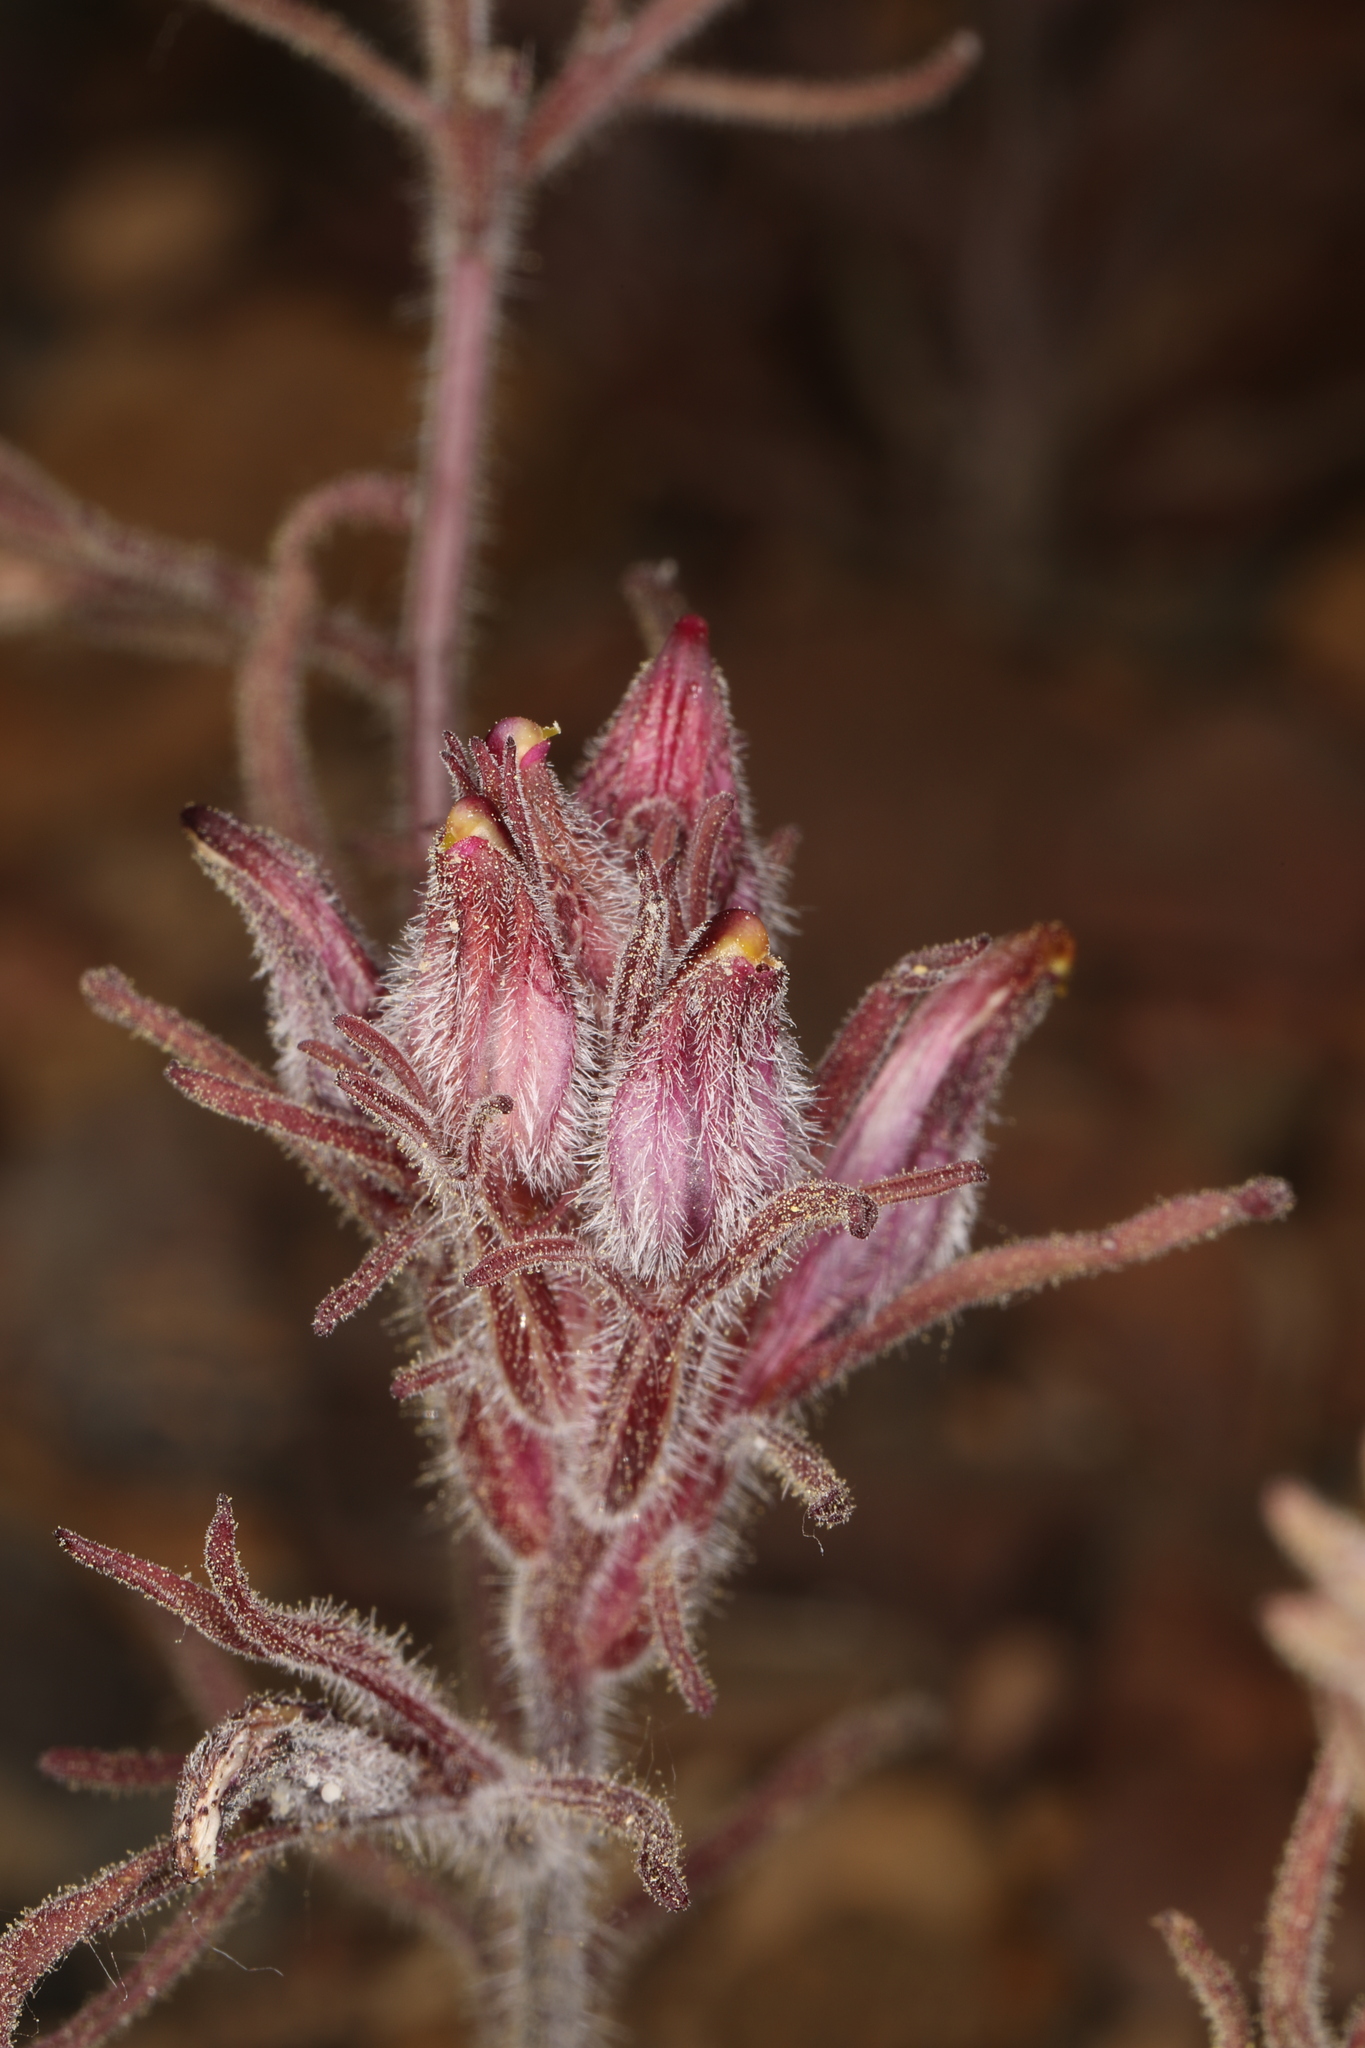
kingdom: Plantae
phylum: Tracheophyta
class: Magnoliopsida
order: Lamiales
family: Orobanchaceae
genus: Cordylanthus
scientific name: Cordylanthus kingii
